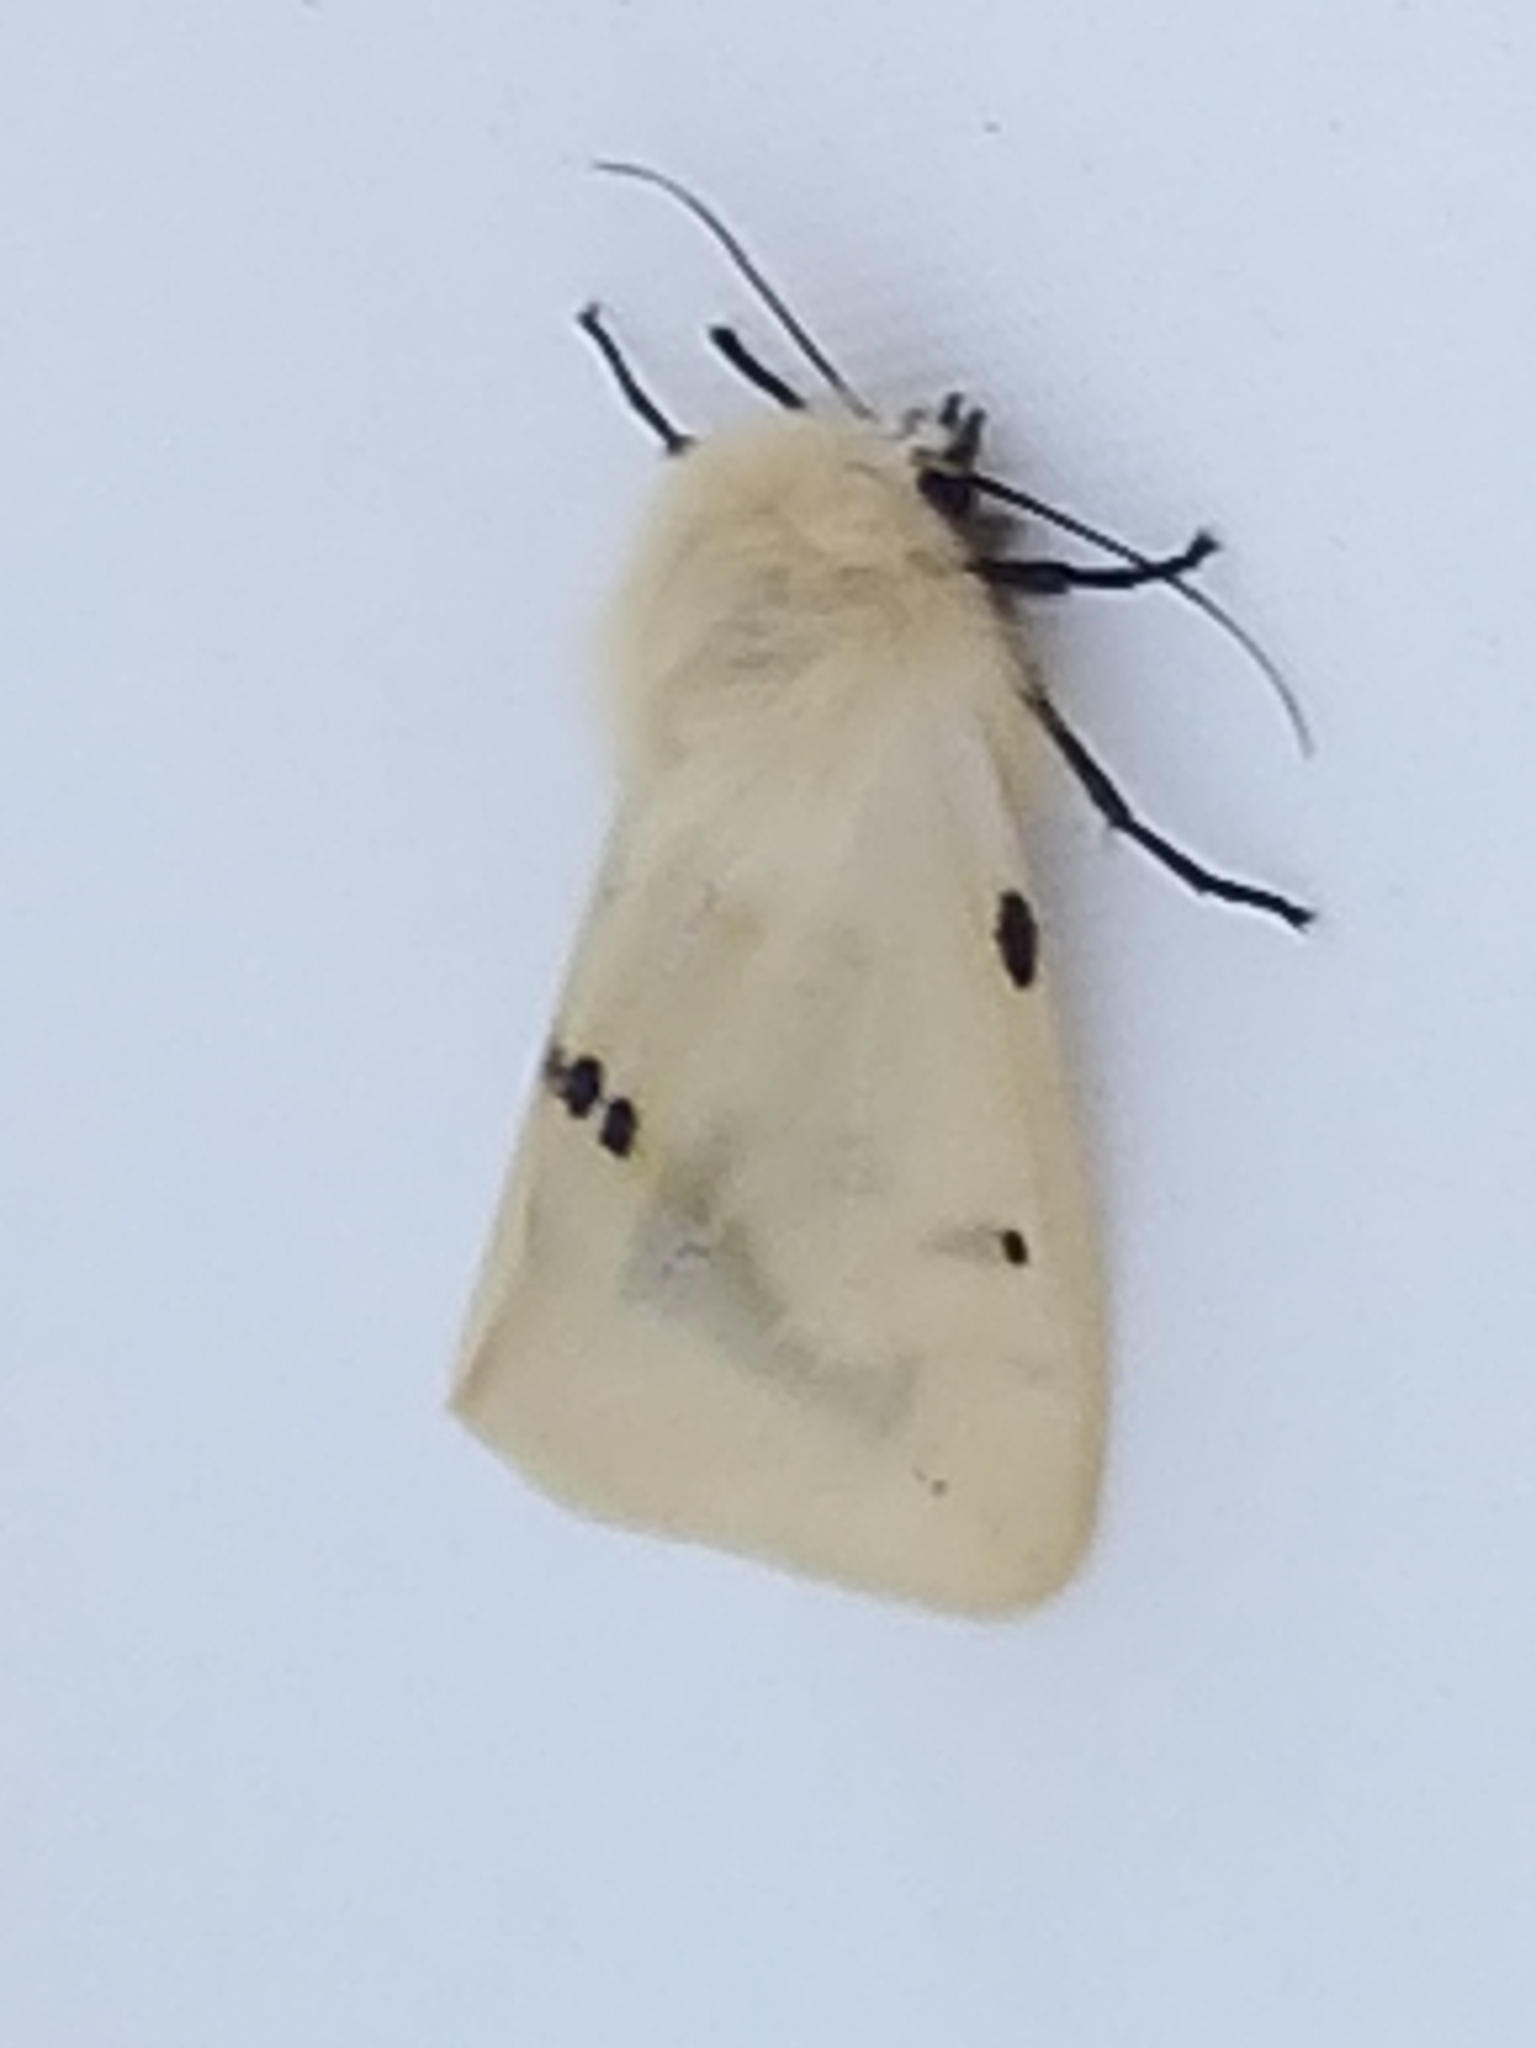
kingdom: Animalia
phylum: Arthropoda
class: Insecta
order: Lepidoptera
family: Erebidae
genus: Spilarctia
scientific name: Spilarctia lutea
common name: Buff ermine
